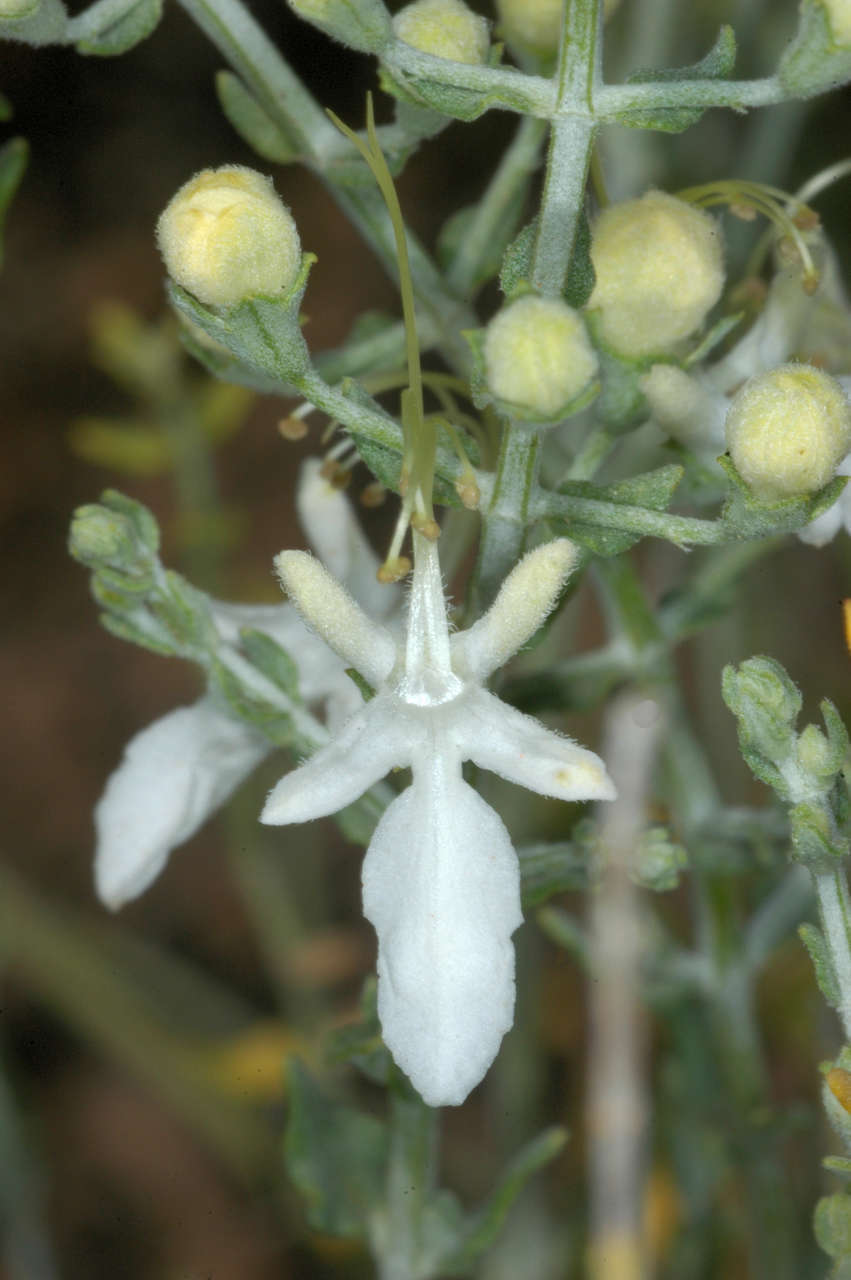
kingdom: Plantae
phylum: Tracheophyta
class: Magnoliopsida
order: Lamiales
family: Lamiaceae
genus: Teucrium
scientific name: Teucrium racemosum
